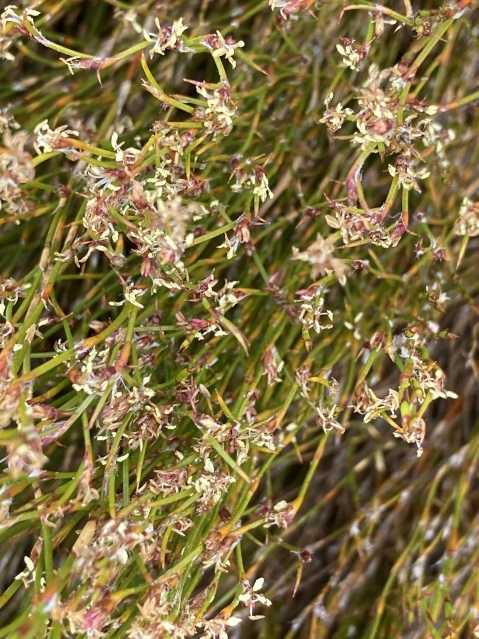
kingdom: Plantae
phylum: Tracheophyta
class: Liliopsida
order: Poales
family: Restionaceae
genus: Empodisma
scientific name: Empodisma minus
